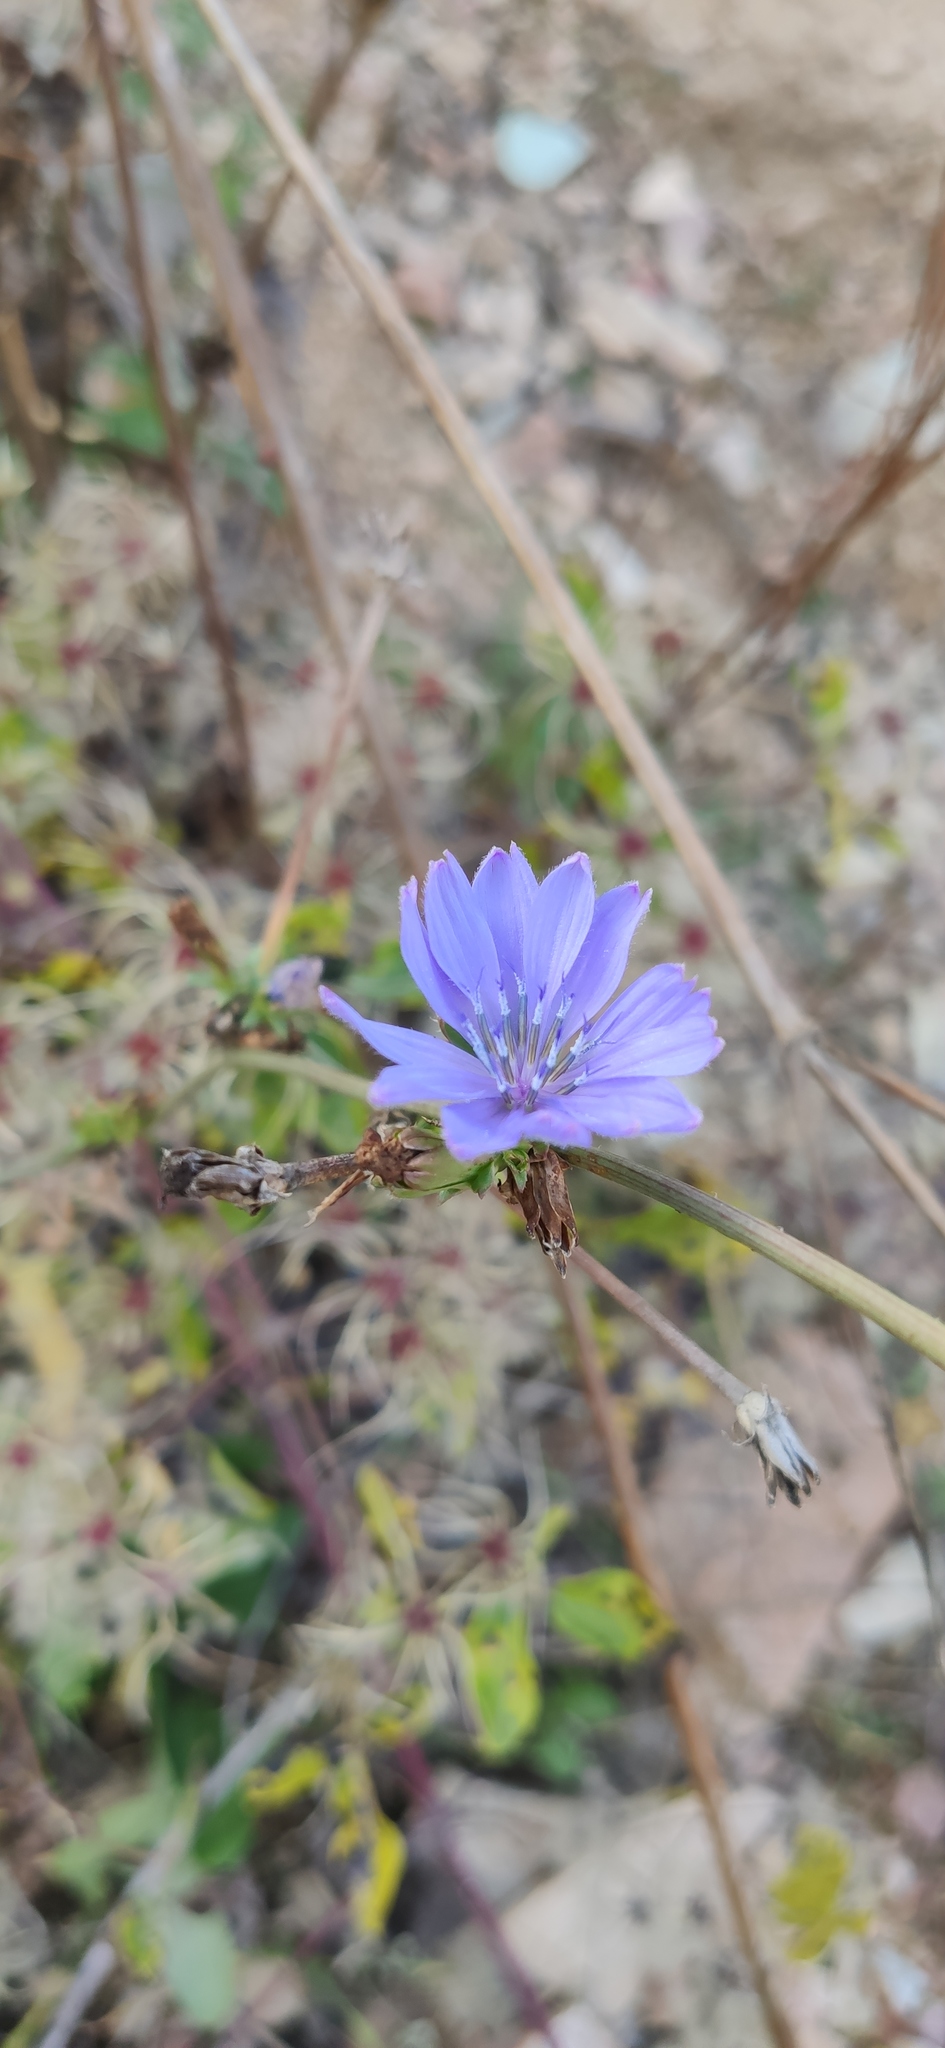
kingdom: Plantae
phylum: Tracheophyta
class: Magnoliopsida
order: Asterales
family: Asteraceae
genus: Cichorium
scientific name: Cichorium intybus
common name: Chicory
